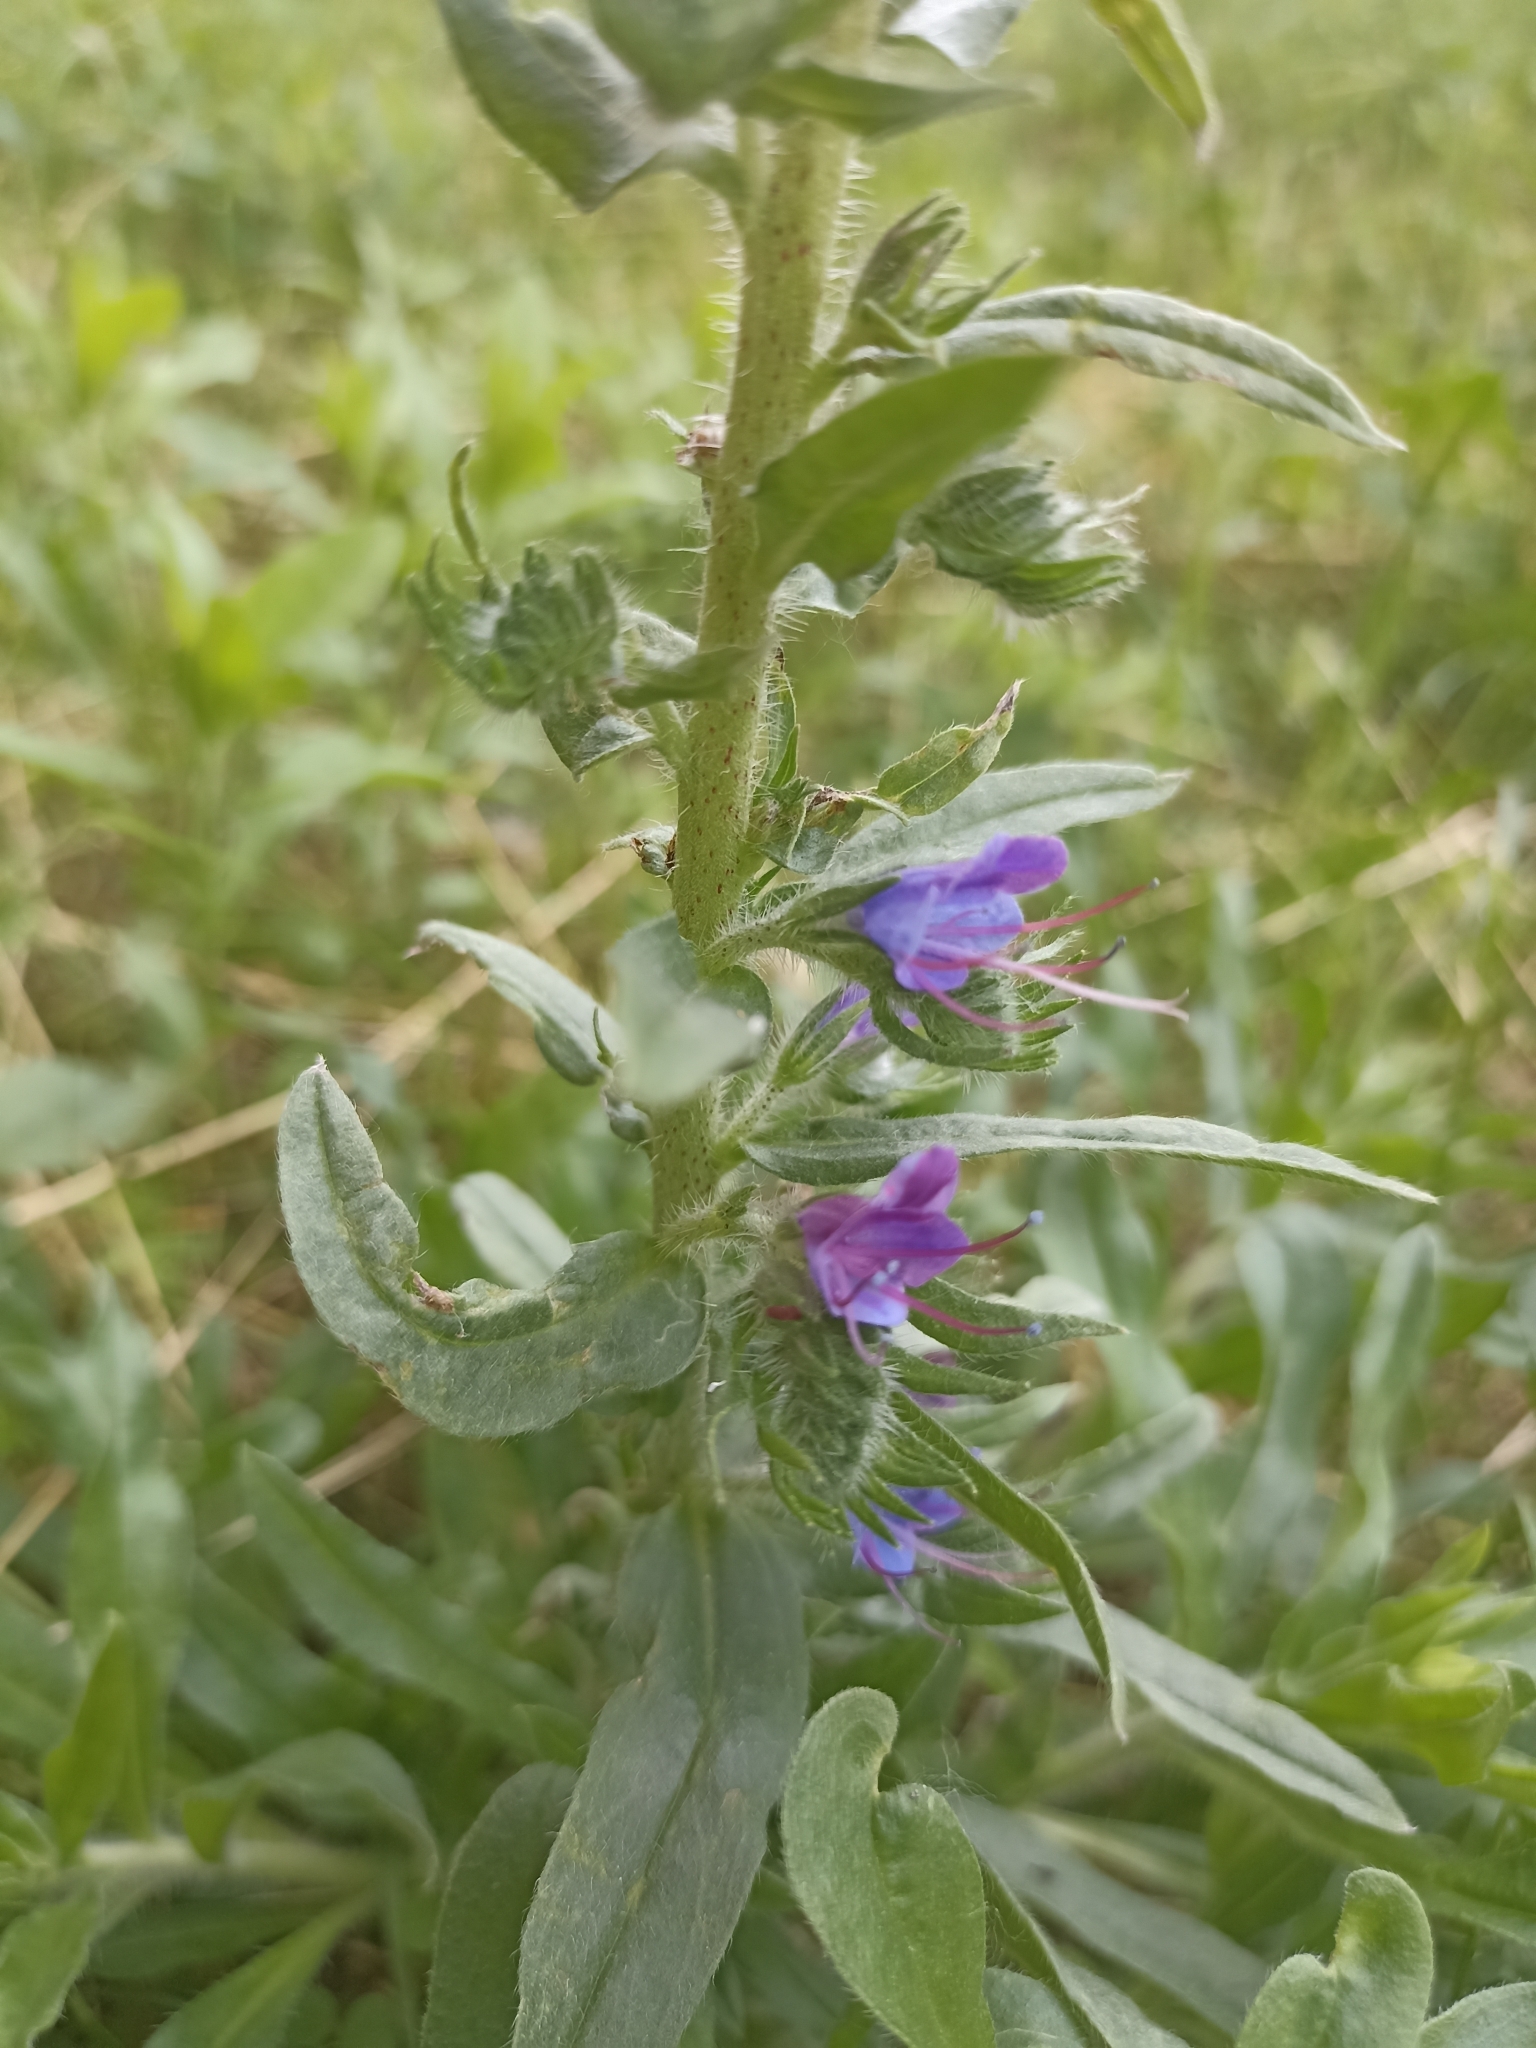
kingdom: Plantae
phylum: Tracheophyta
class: Magnoliopsida
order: Boraginales
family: Boraginaceae
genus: Echium
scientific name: Echium vulgare
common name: Common viper's bugloss
